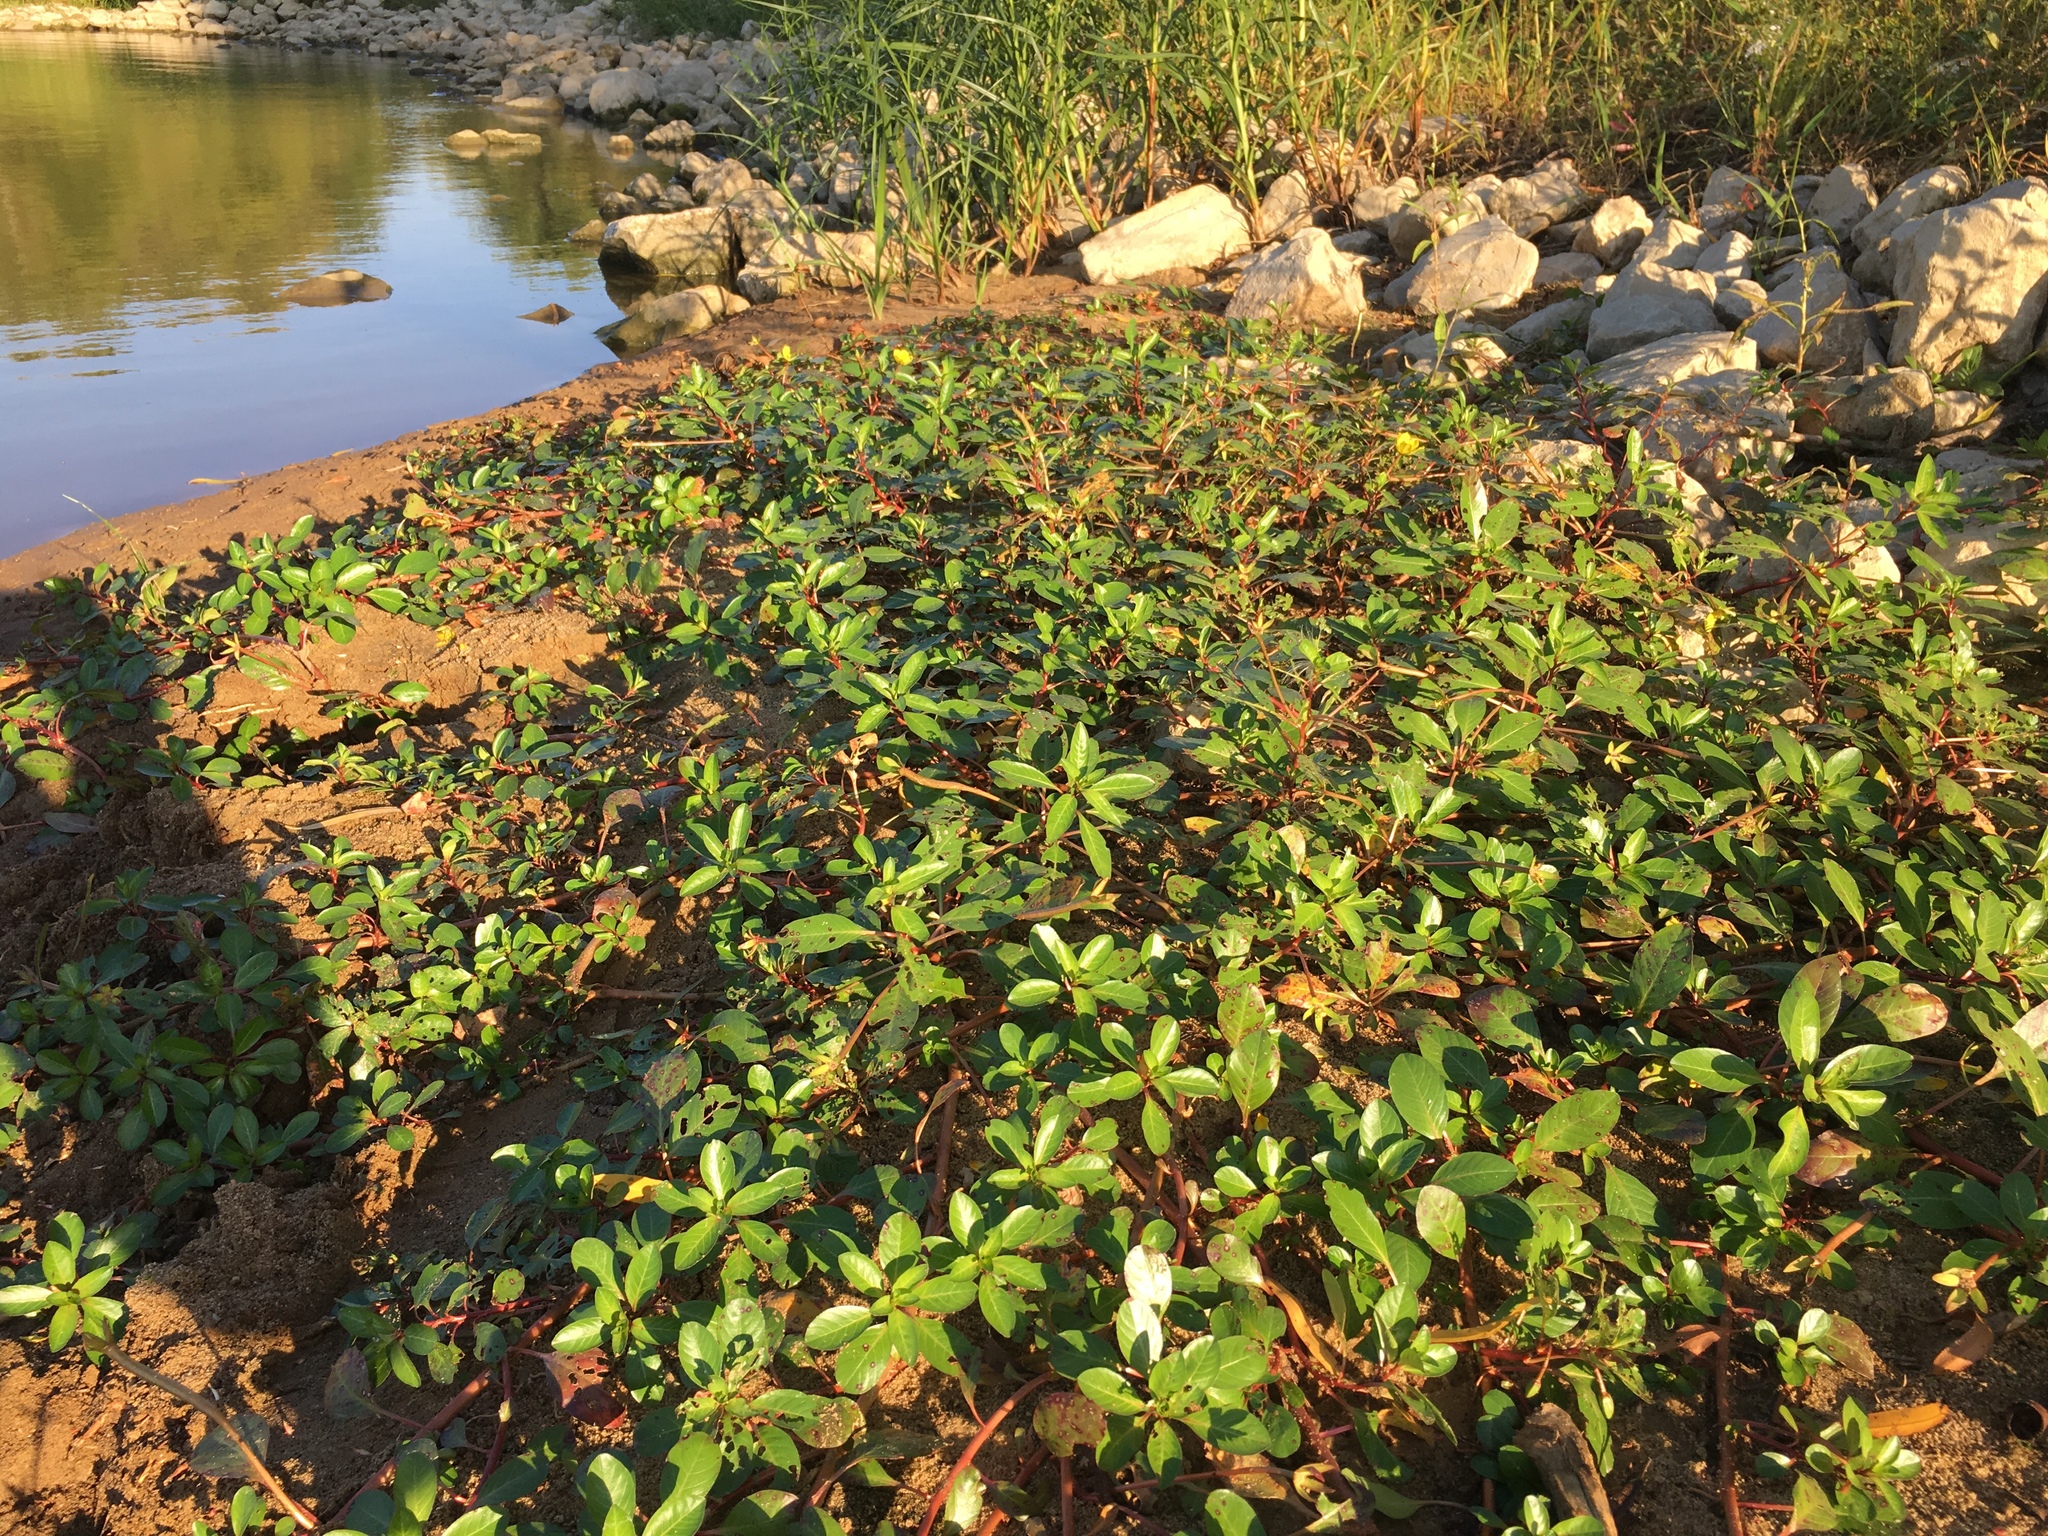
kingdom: Plantae
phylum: Tracheophyta
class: Magnoliopsida
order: Myrtales
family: Onagraceae
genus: Ludwigia
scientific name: Ludwigia peploides
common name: Floating primrose-willow
